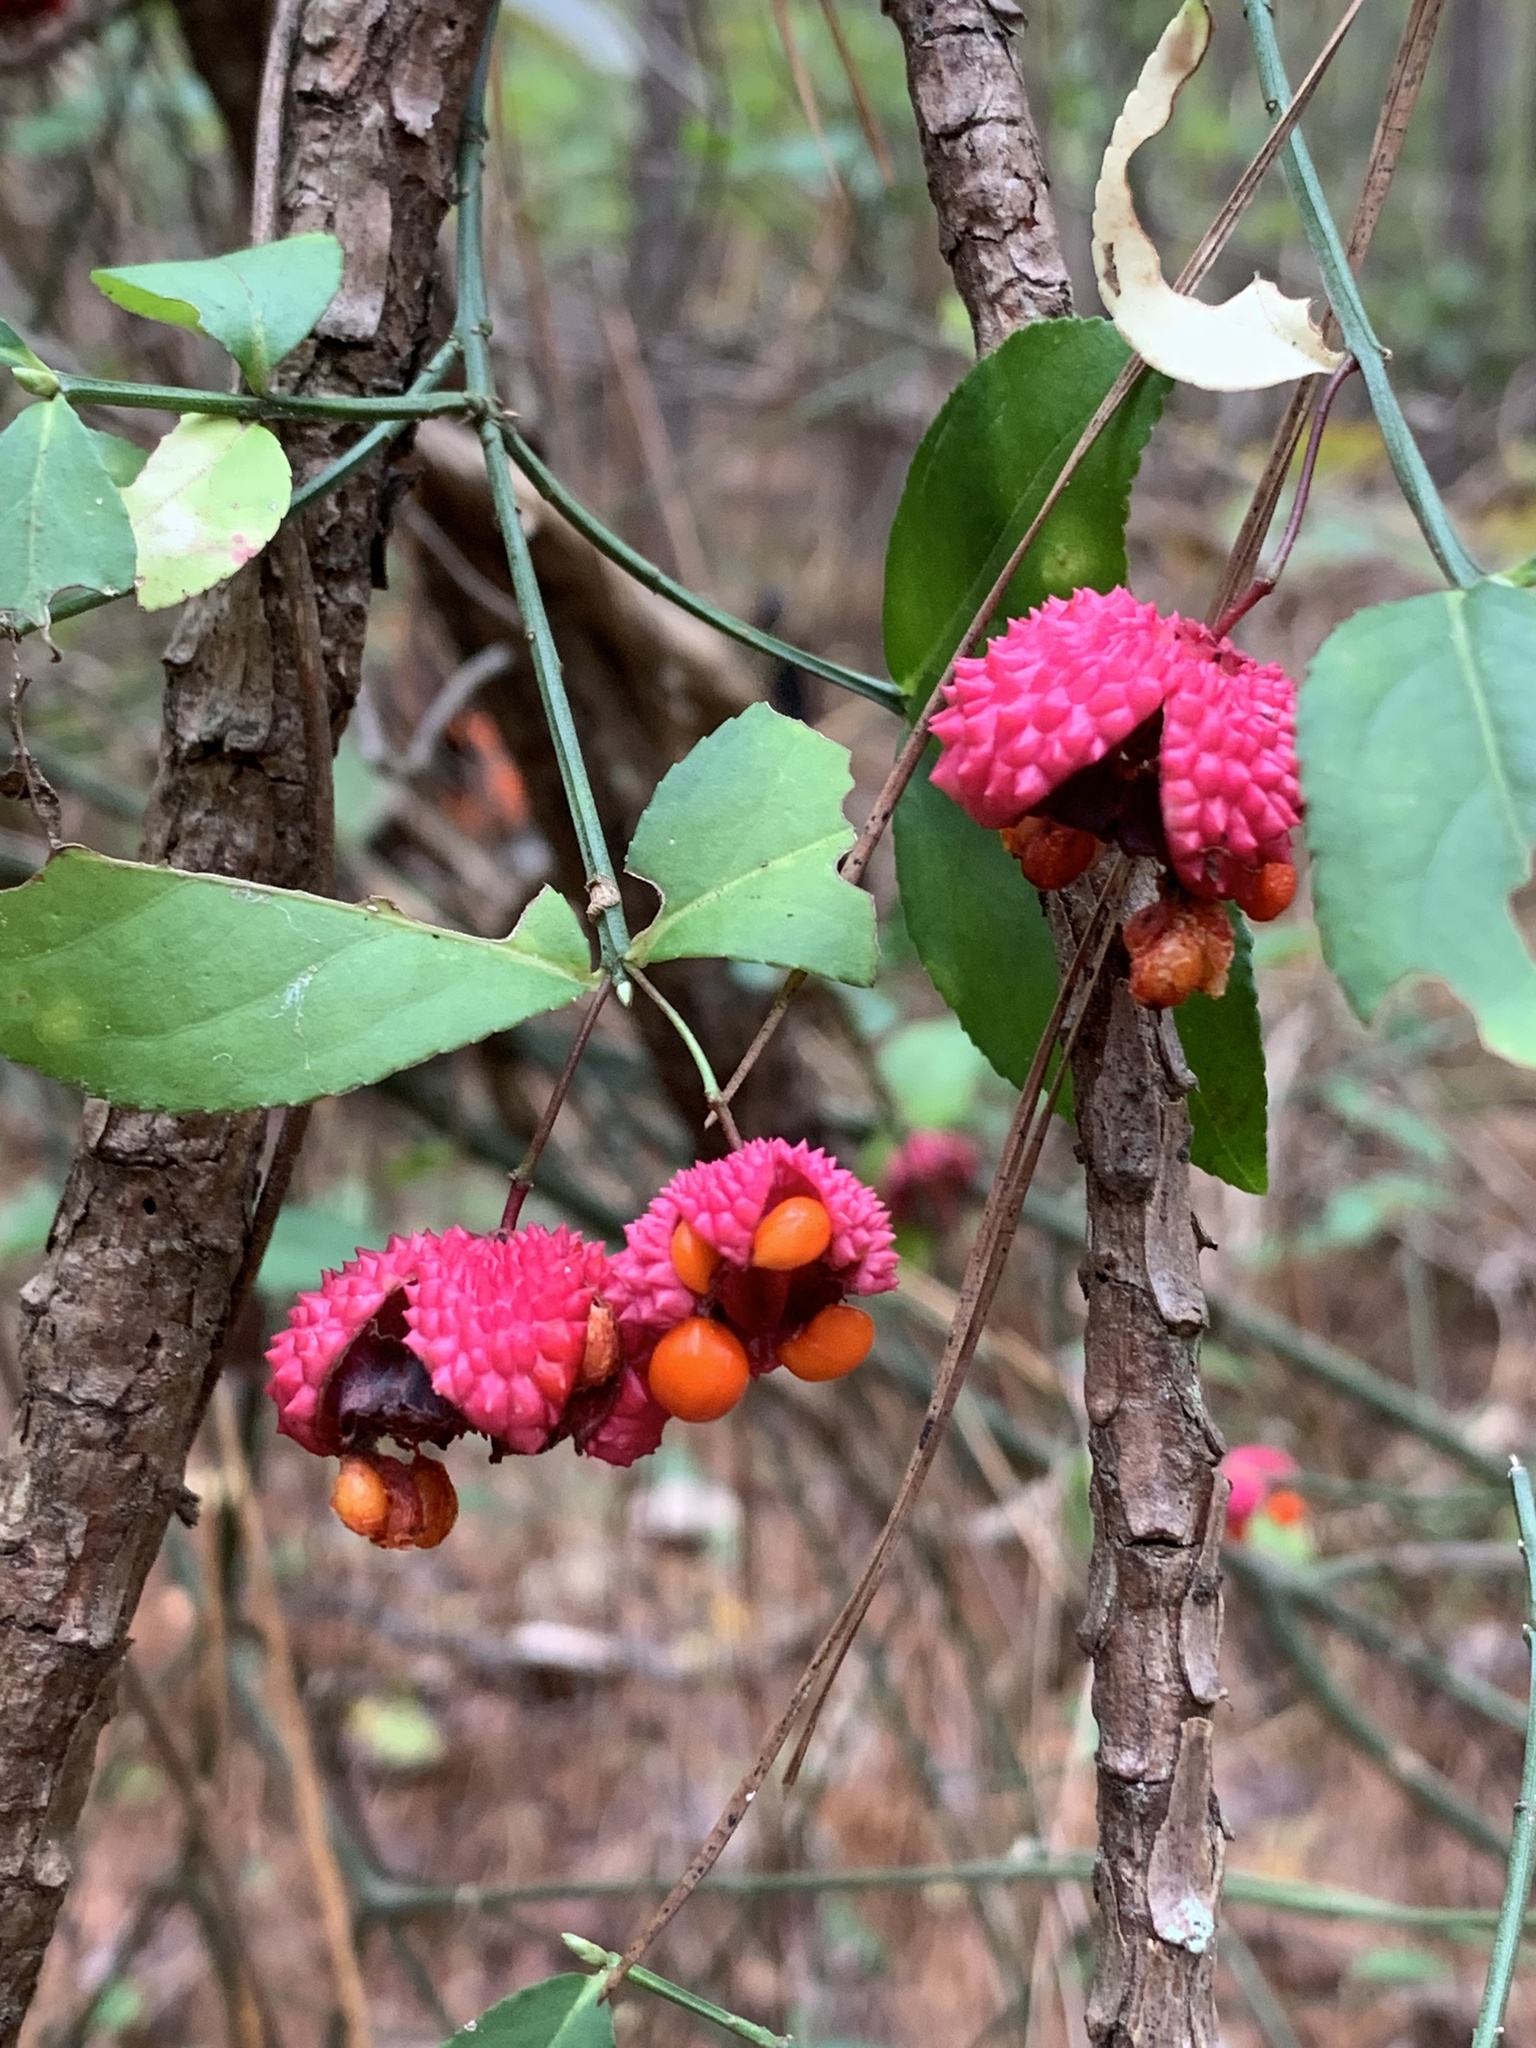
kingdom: Plantae
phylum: Tracheophyta
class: Magnoliopsida
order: Celastrales
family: Celastraceae
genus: Euonymus
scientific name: Euonymus americanus
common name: Bursting-heart
